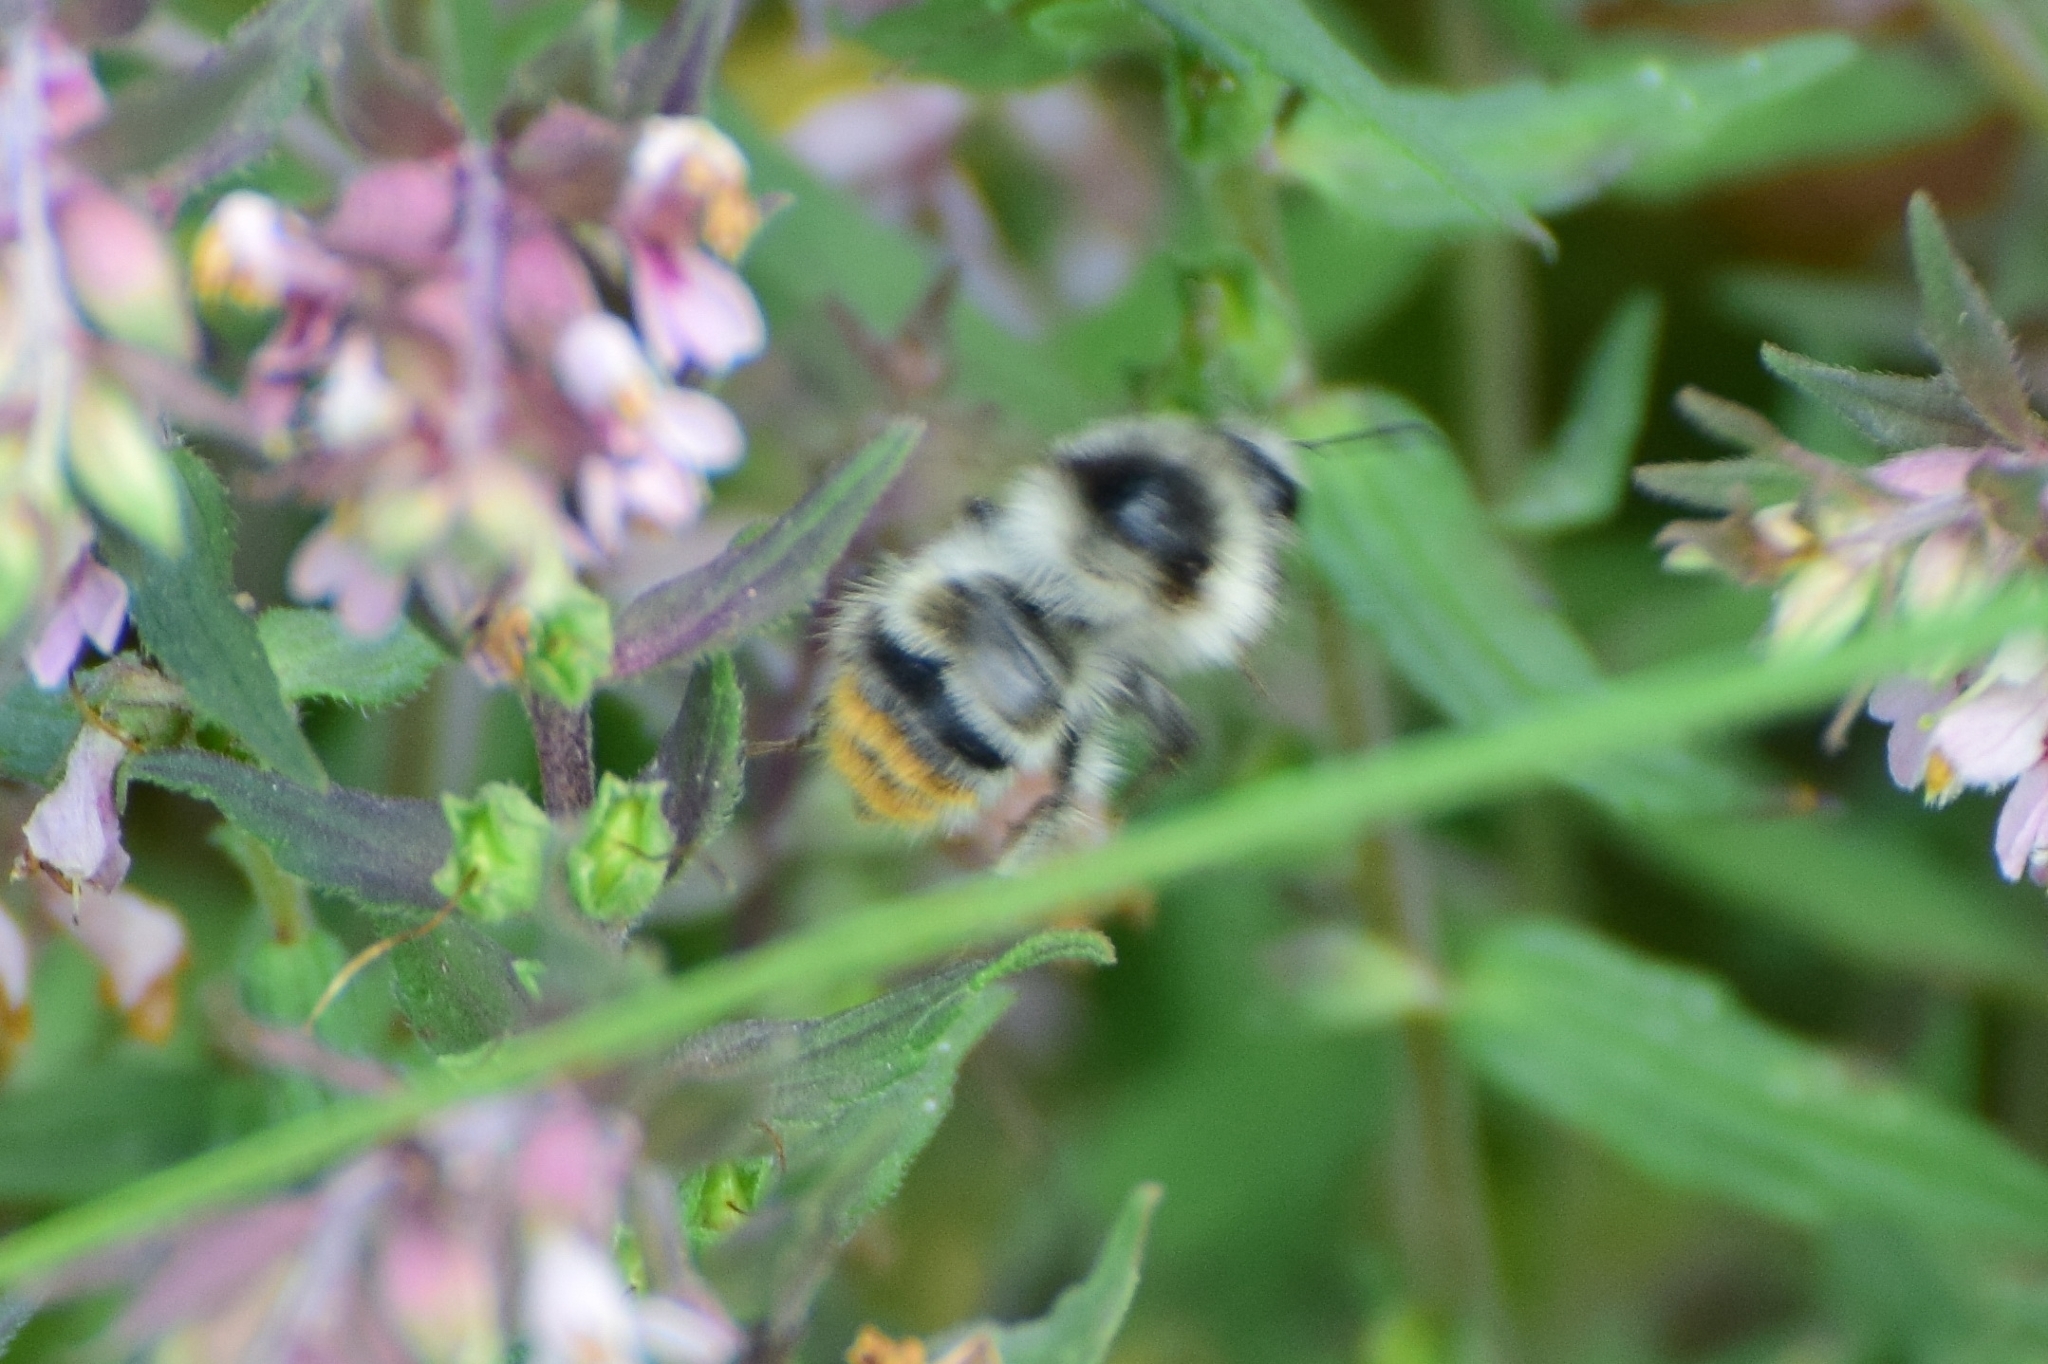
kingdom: Animalia
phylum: Arthropoda
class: Insecta
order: Hymenoptera
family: Apidae
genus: Bombus
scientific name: Bombus sylvarum
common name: Shrill carder bee
